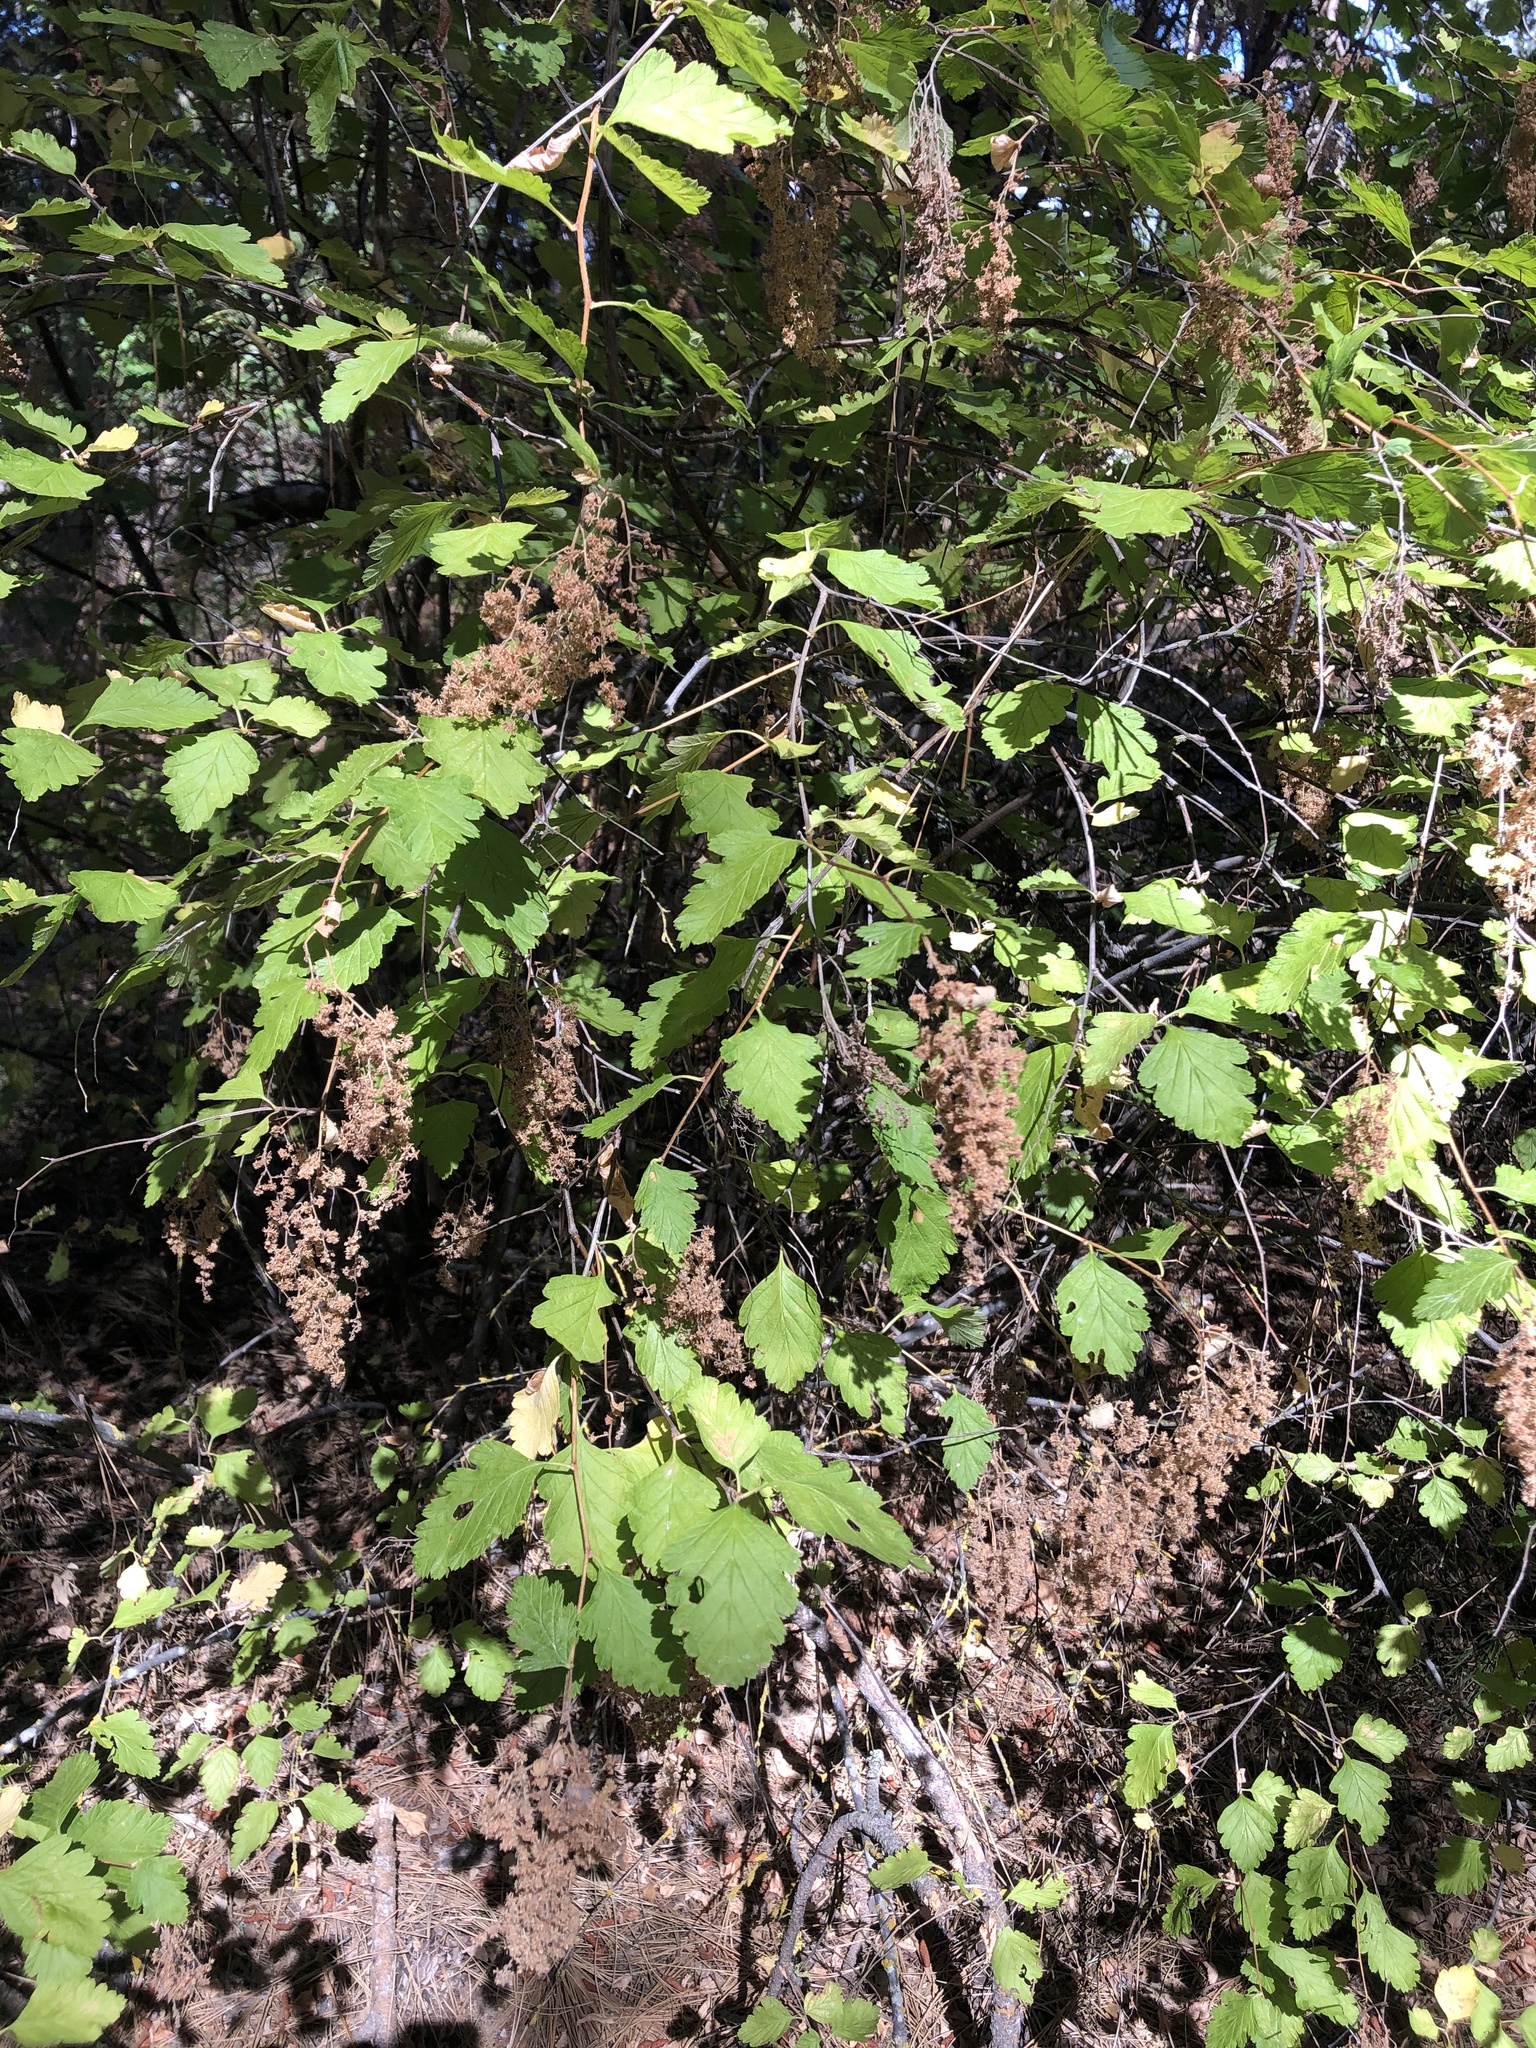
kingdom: Plantae
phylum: Tracheophyta
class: Magnoliopsida
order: Rosales
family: Rosaceae
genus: Holodiscus
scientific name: Holodiscus discolor
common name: Oceanspray
